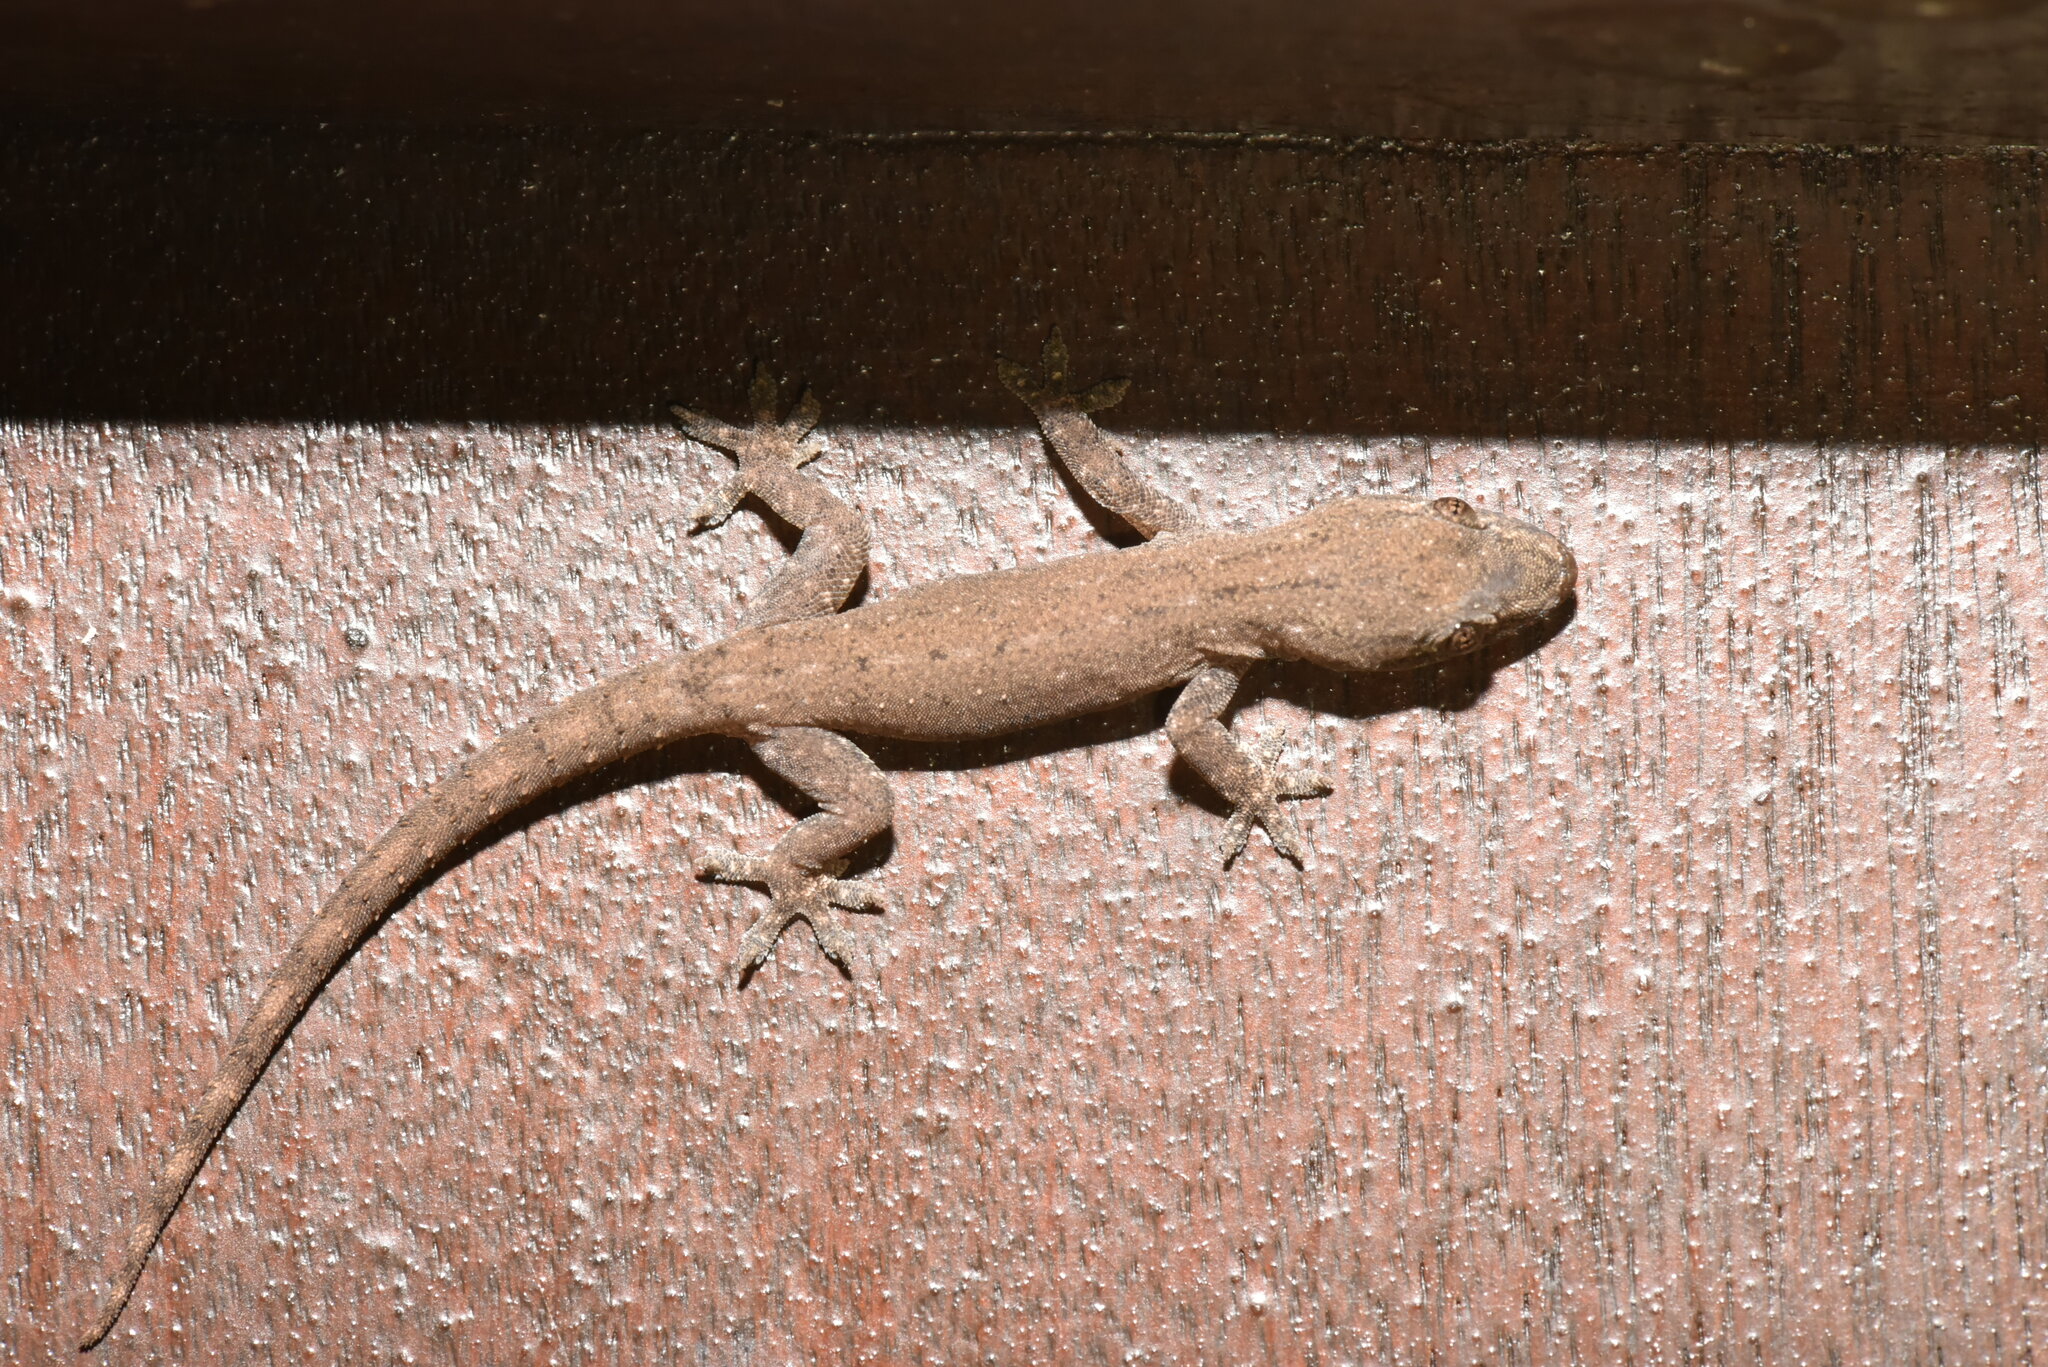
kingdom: Animalia
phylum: Chordata
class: Squamata
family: Gekkonidae
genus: Hemidactylus
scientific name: Hemidactylus frenatus
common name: Common house gecko
